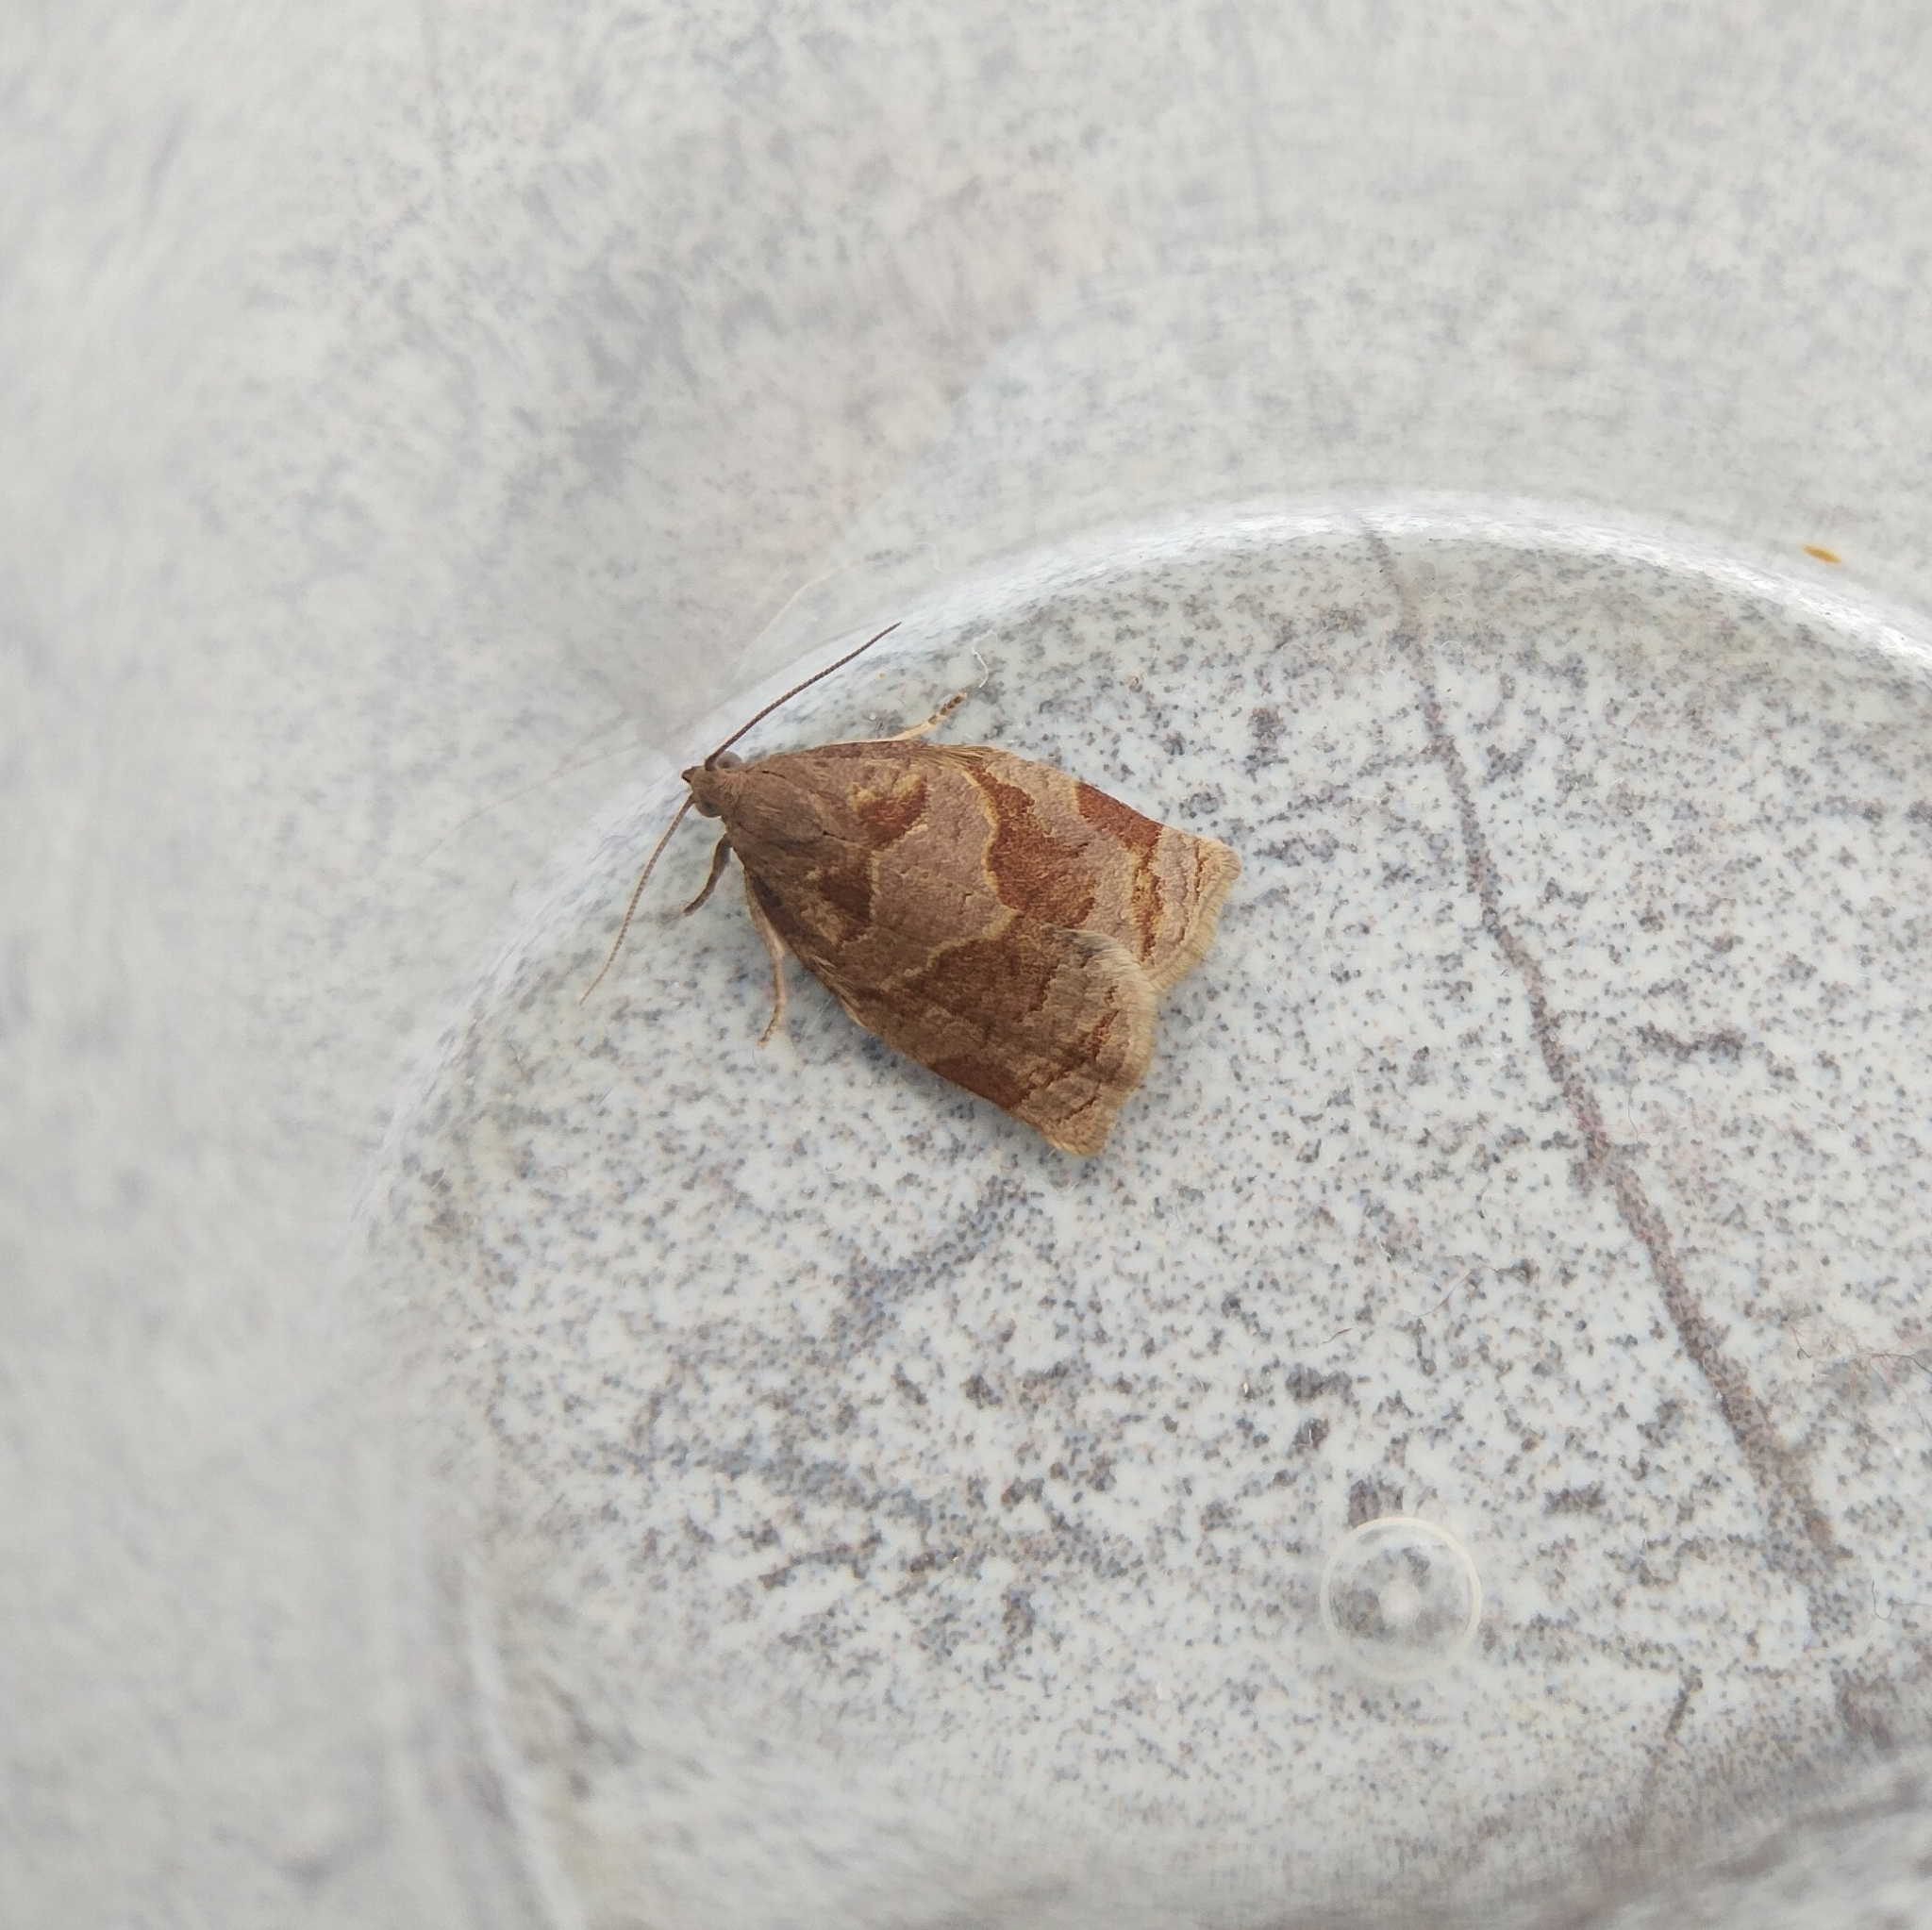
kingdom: Animalia
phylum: Arthropoda
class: Insecta
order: Lepidoptera
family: Tortricidae
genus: Archips
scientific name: Archips rosana
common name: Rose tortrix
